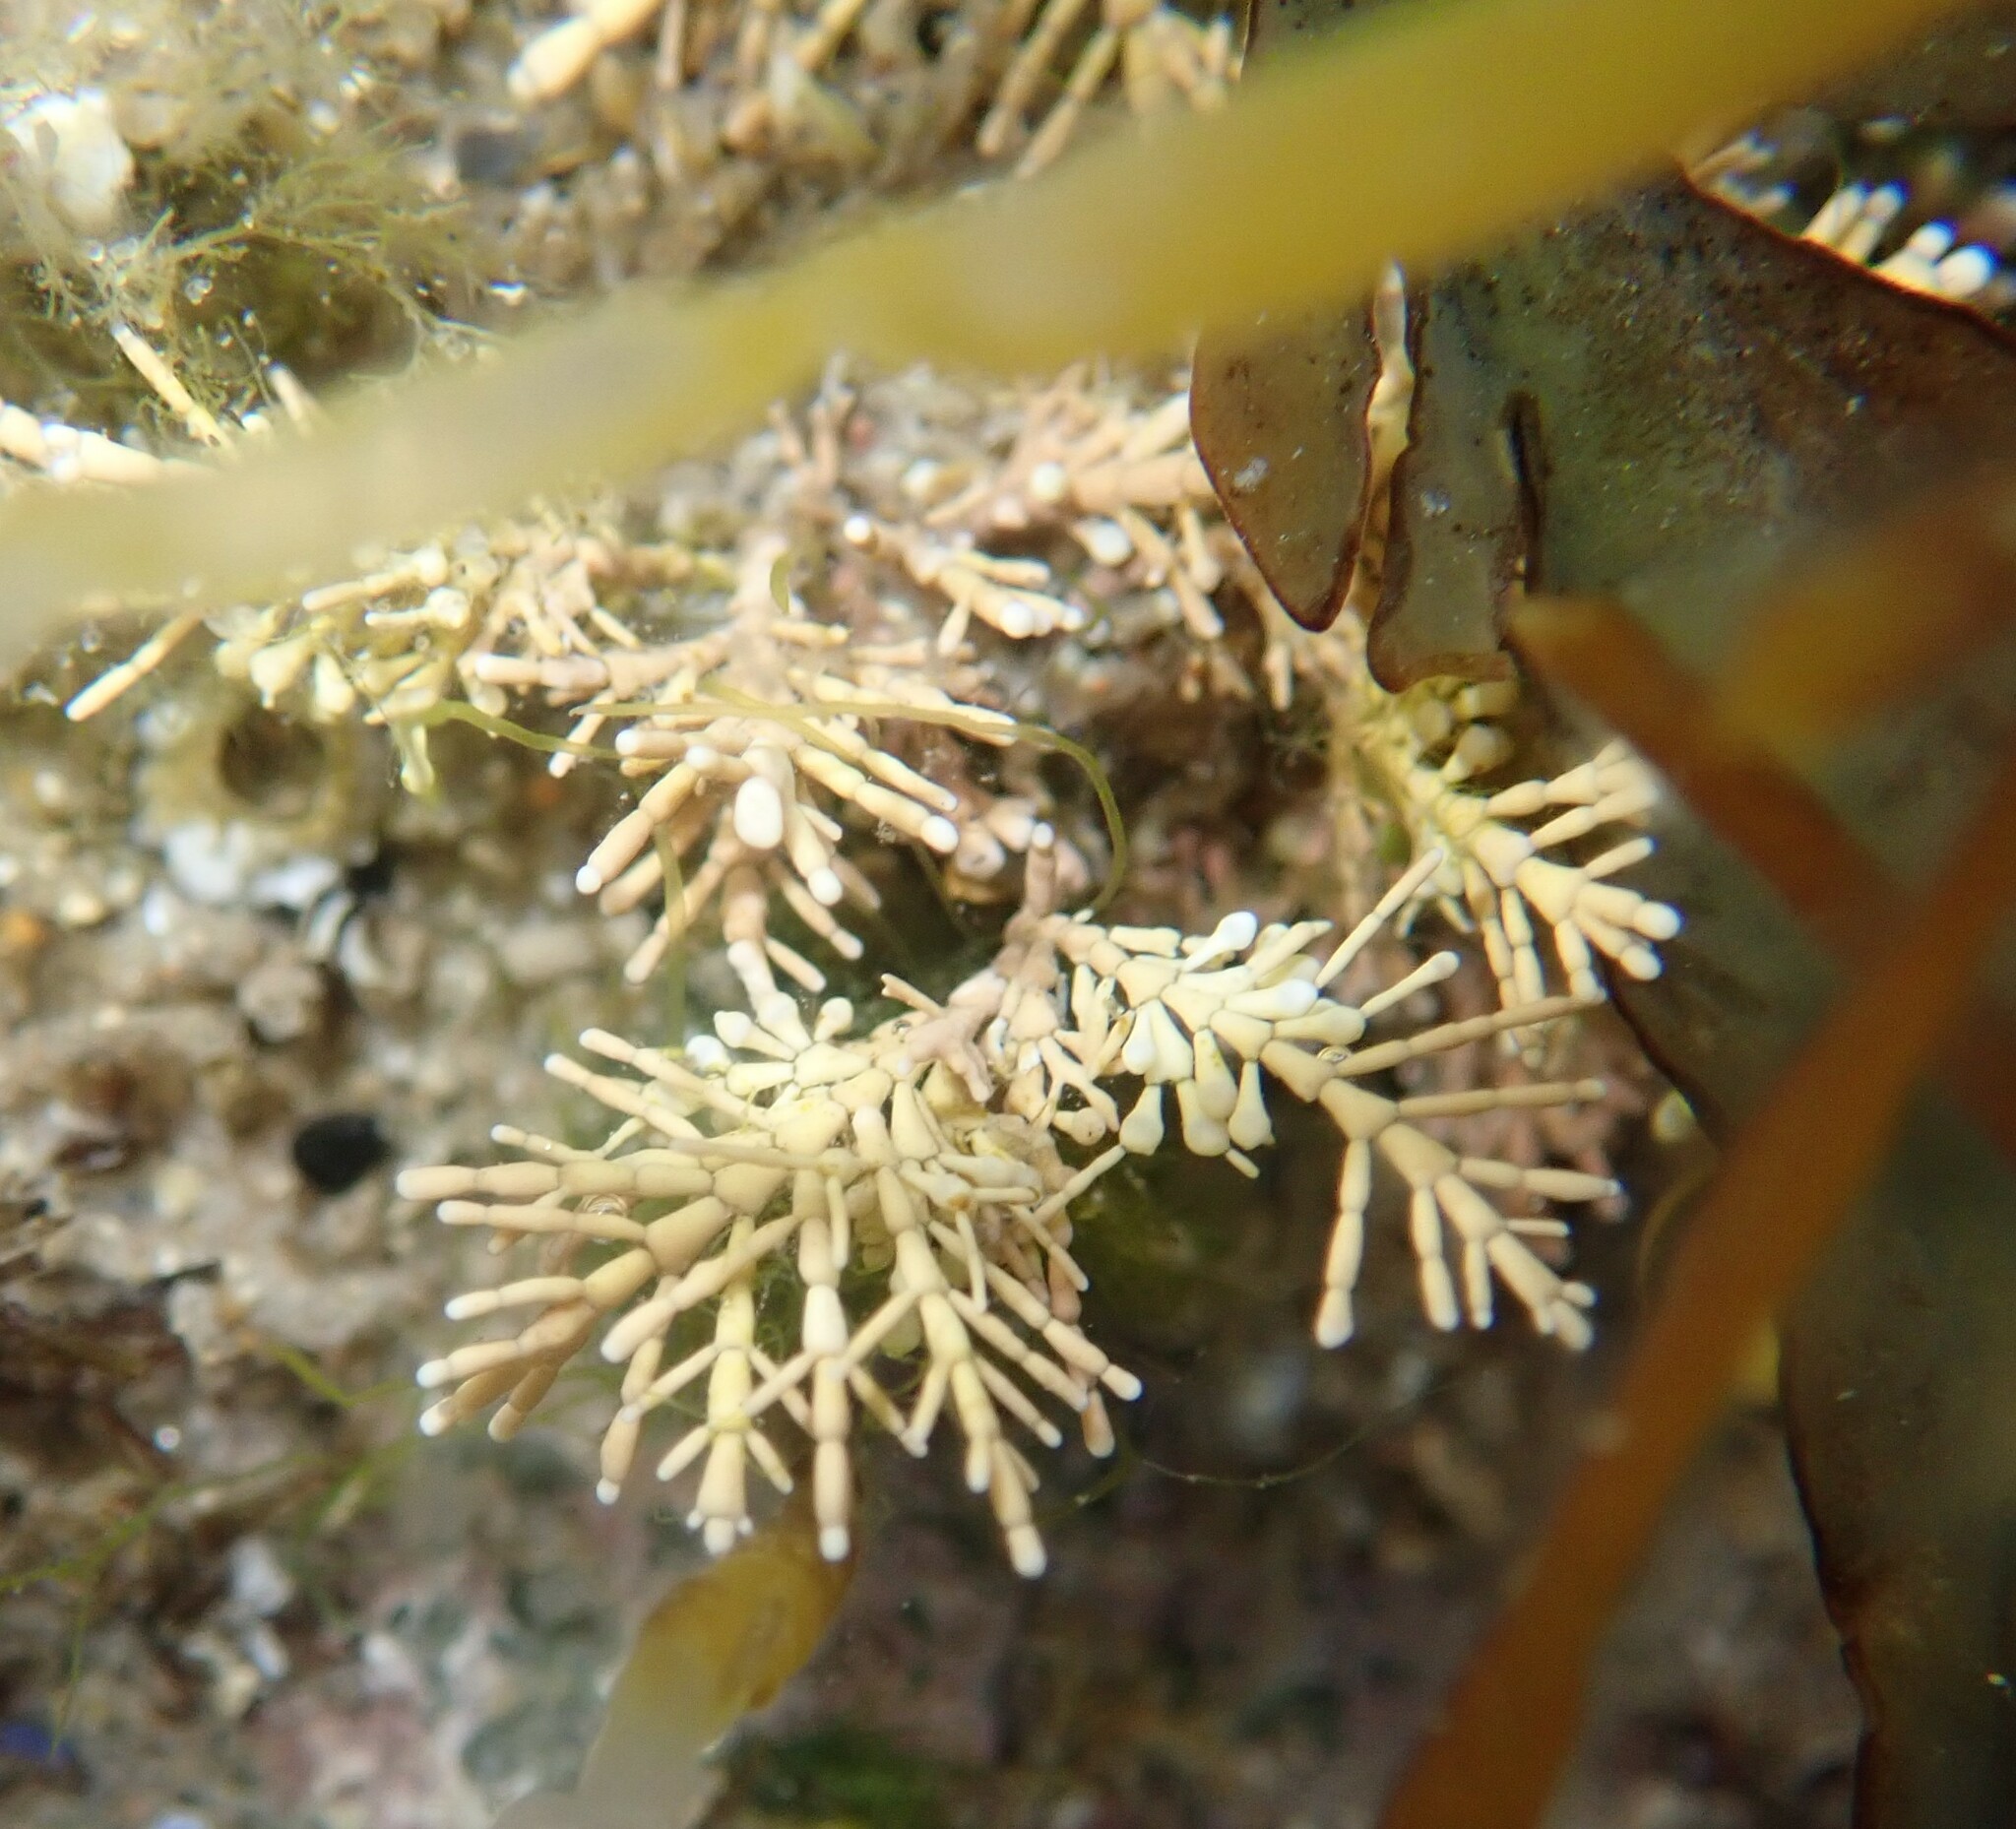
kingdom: Plantae
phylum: Rhodophyta
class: Florideophyceae
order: Corallinales
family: Corallinaceae
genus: Corallina
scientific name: Corallina officinalis
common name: Coral weed
